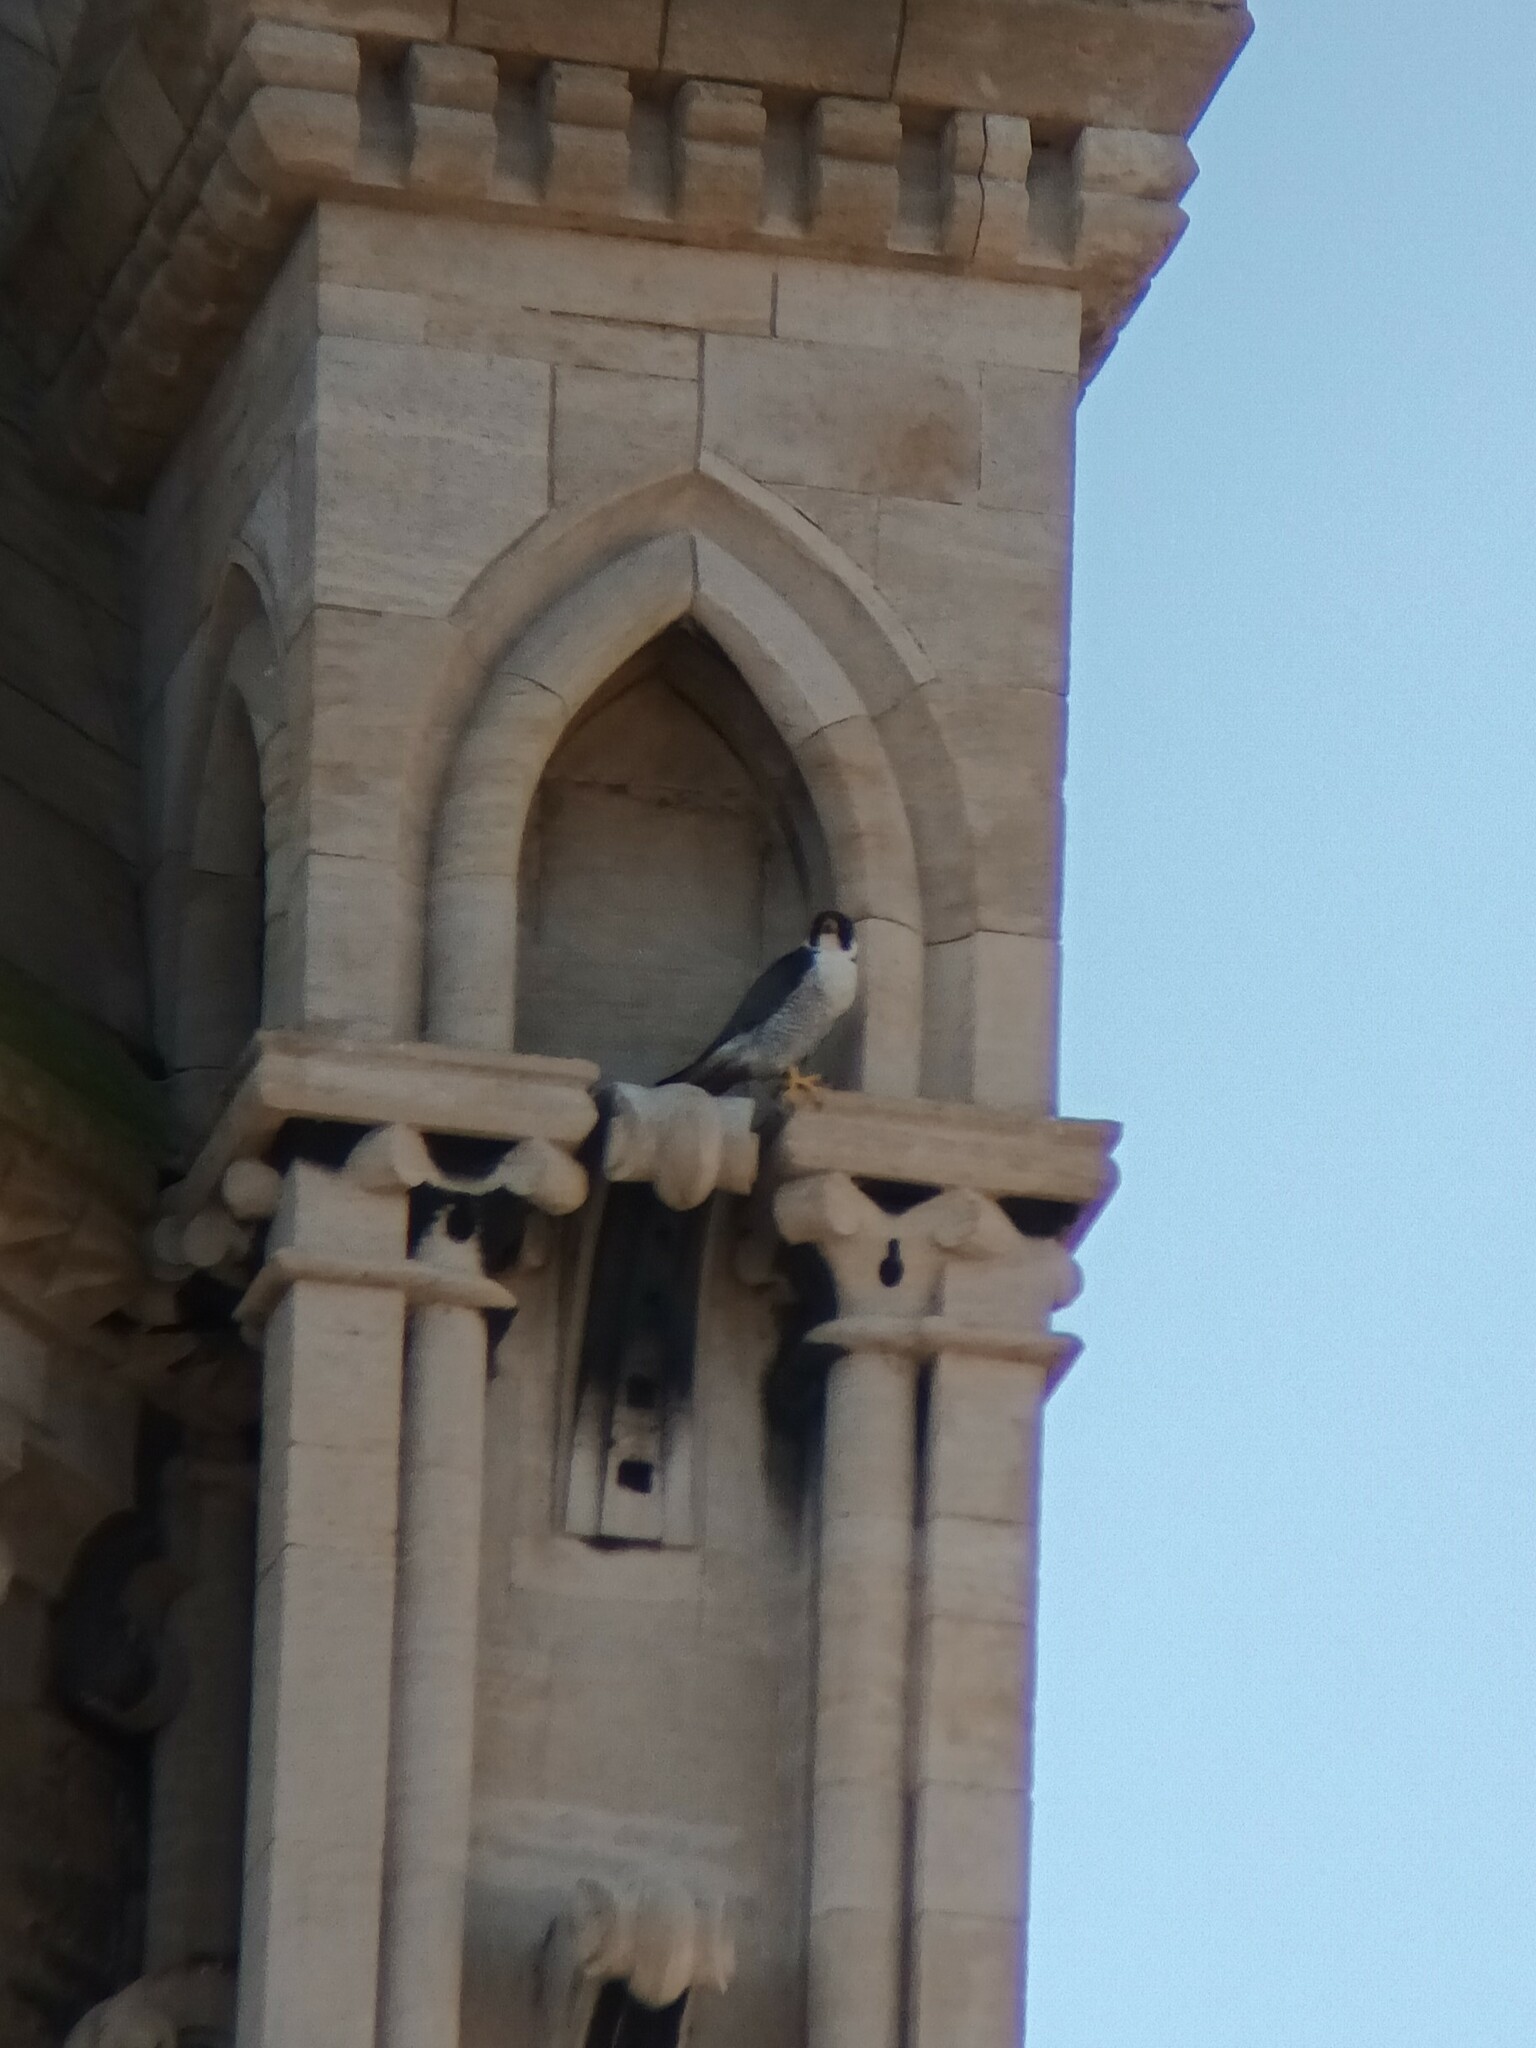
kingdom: Animalia
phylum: Chordata
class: Aves
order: Falconiformes
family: Falconidae
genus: Falco
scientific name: Falco peregrinus
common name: Peregrine falcon
